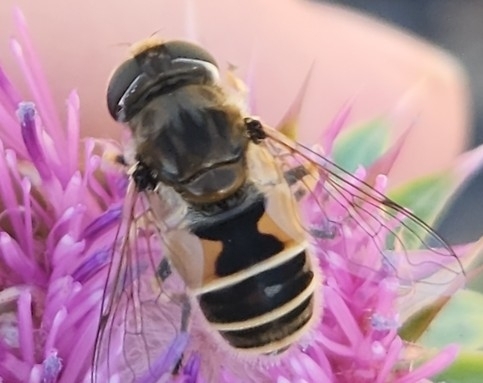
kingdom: Animalia
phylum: Arthropoda
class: Insecta
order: Diptera
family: Syrphidae
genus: Eristalis
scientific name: Eristalis arbustorum
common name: Hover fly
